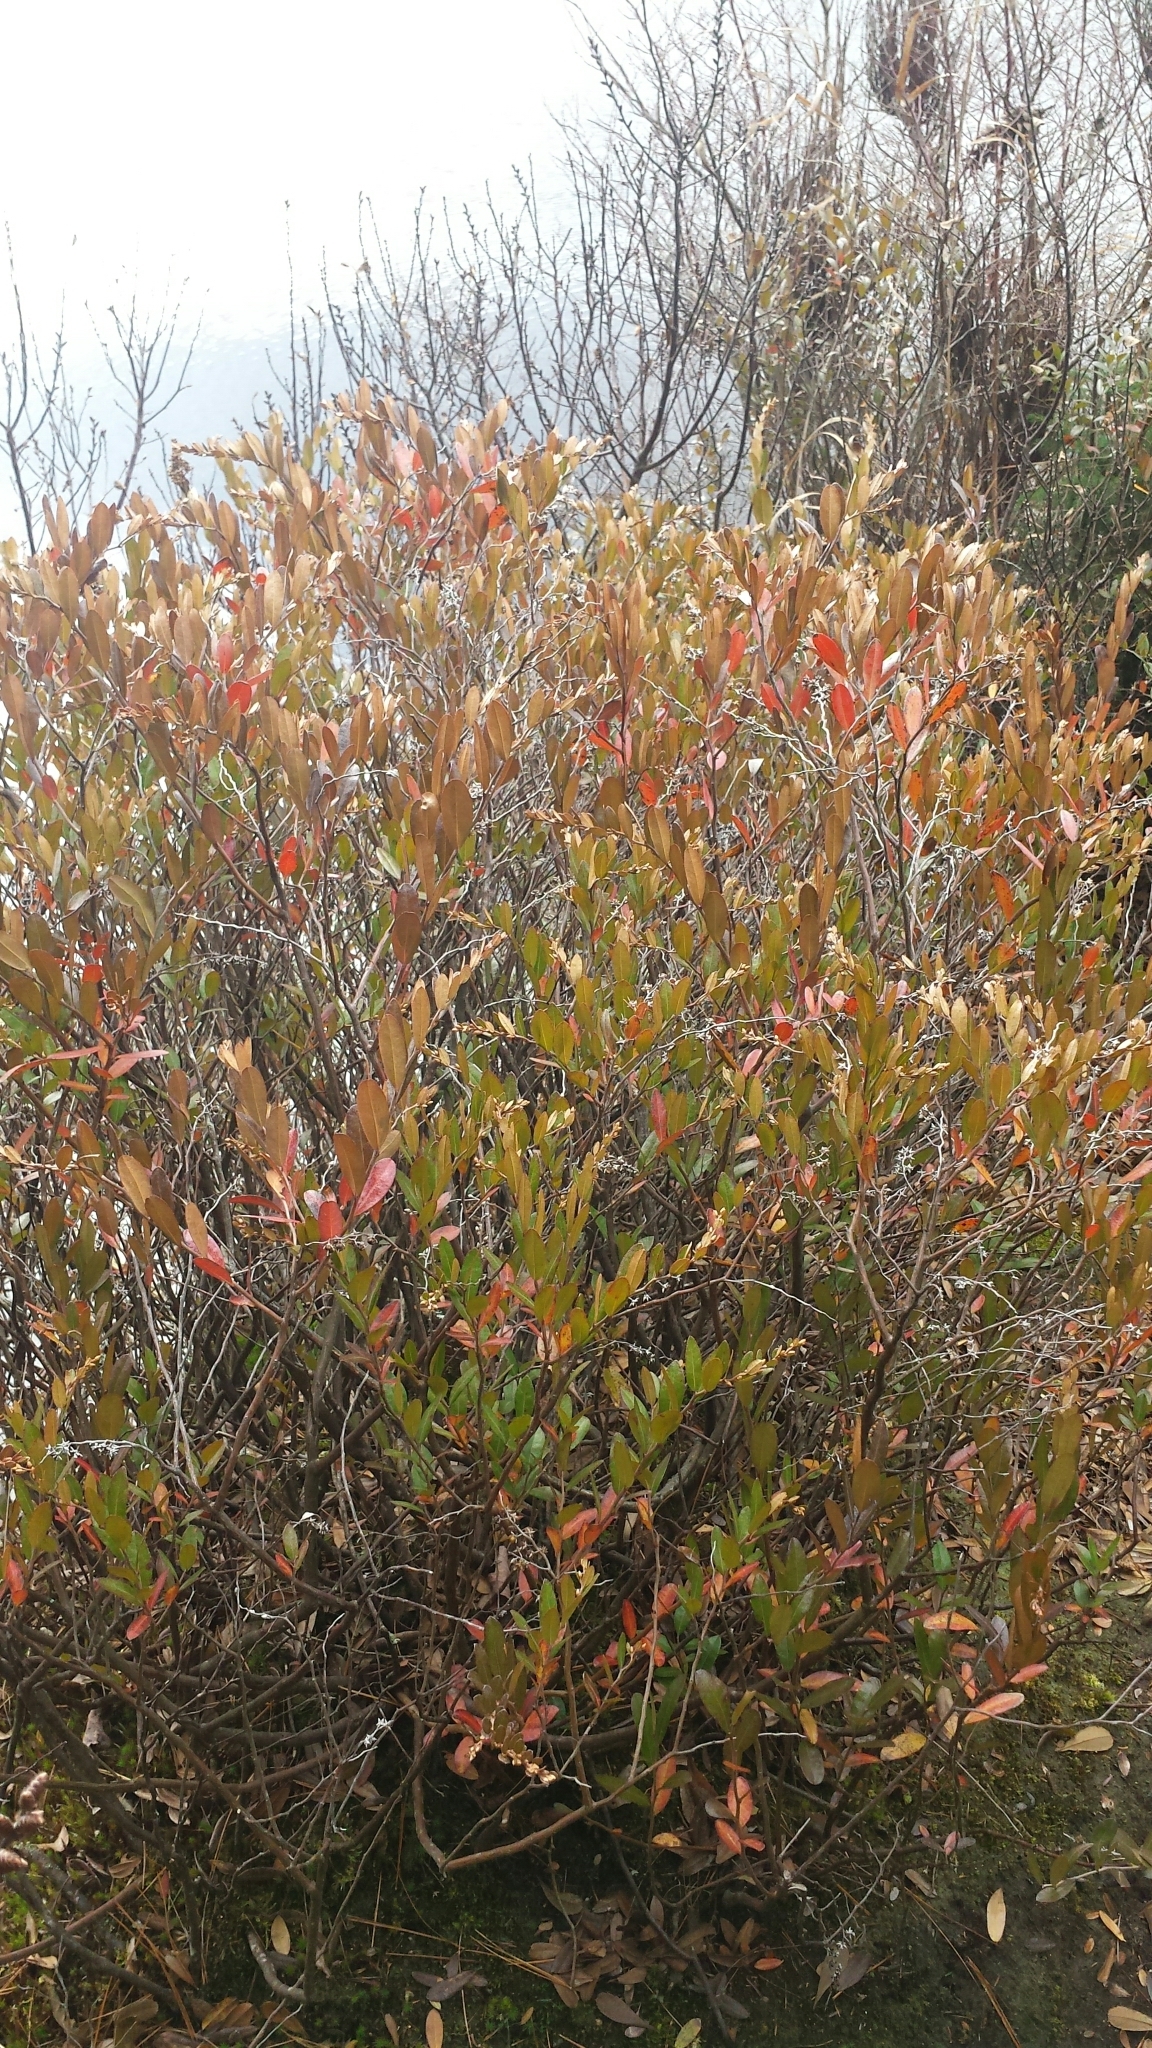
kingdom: Plantae
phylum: Tracheophyta
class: Magnoliopsida
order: Ericales
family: Ericaceae
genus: Chamaedaphne
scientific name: Chamaedaphne calyculata
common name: Leatherleaf
